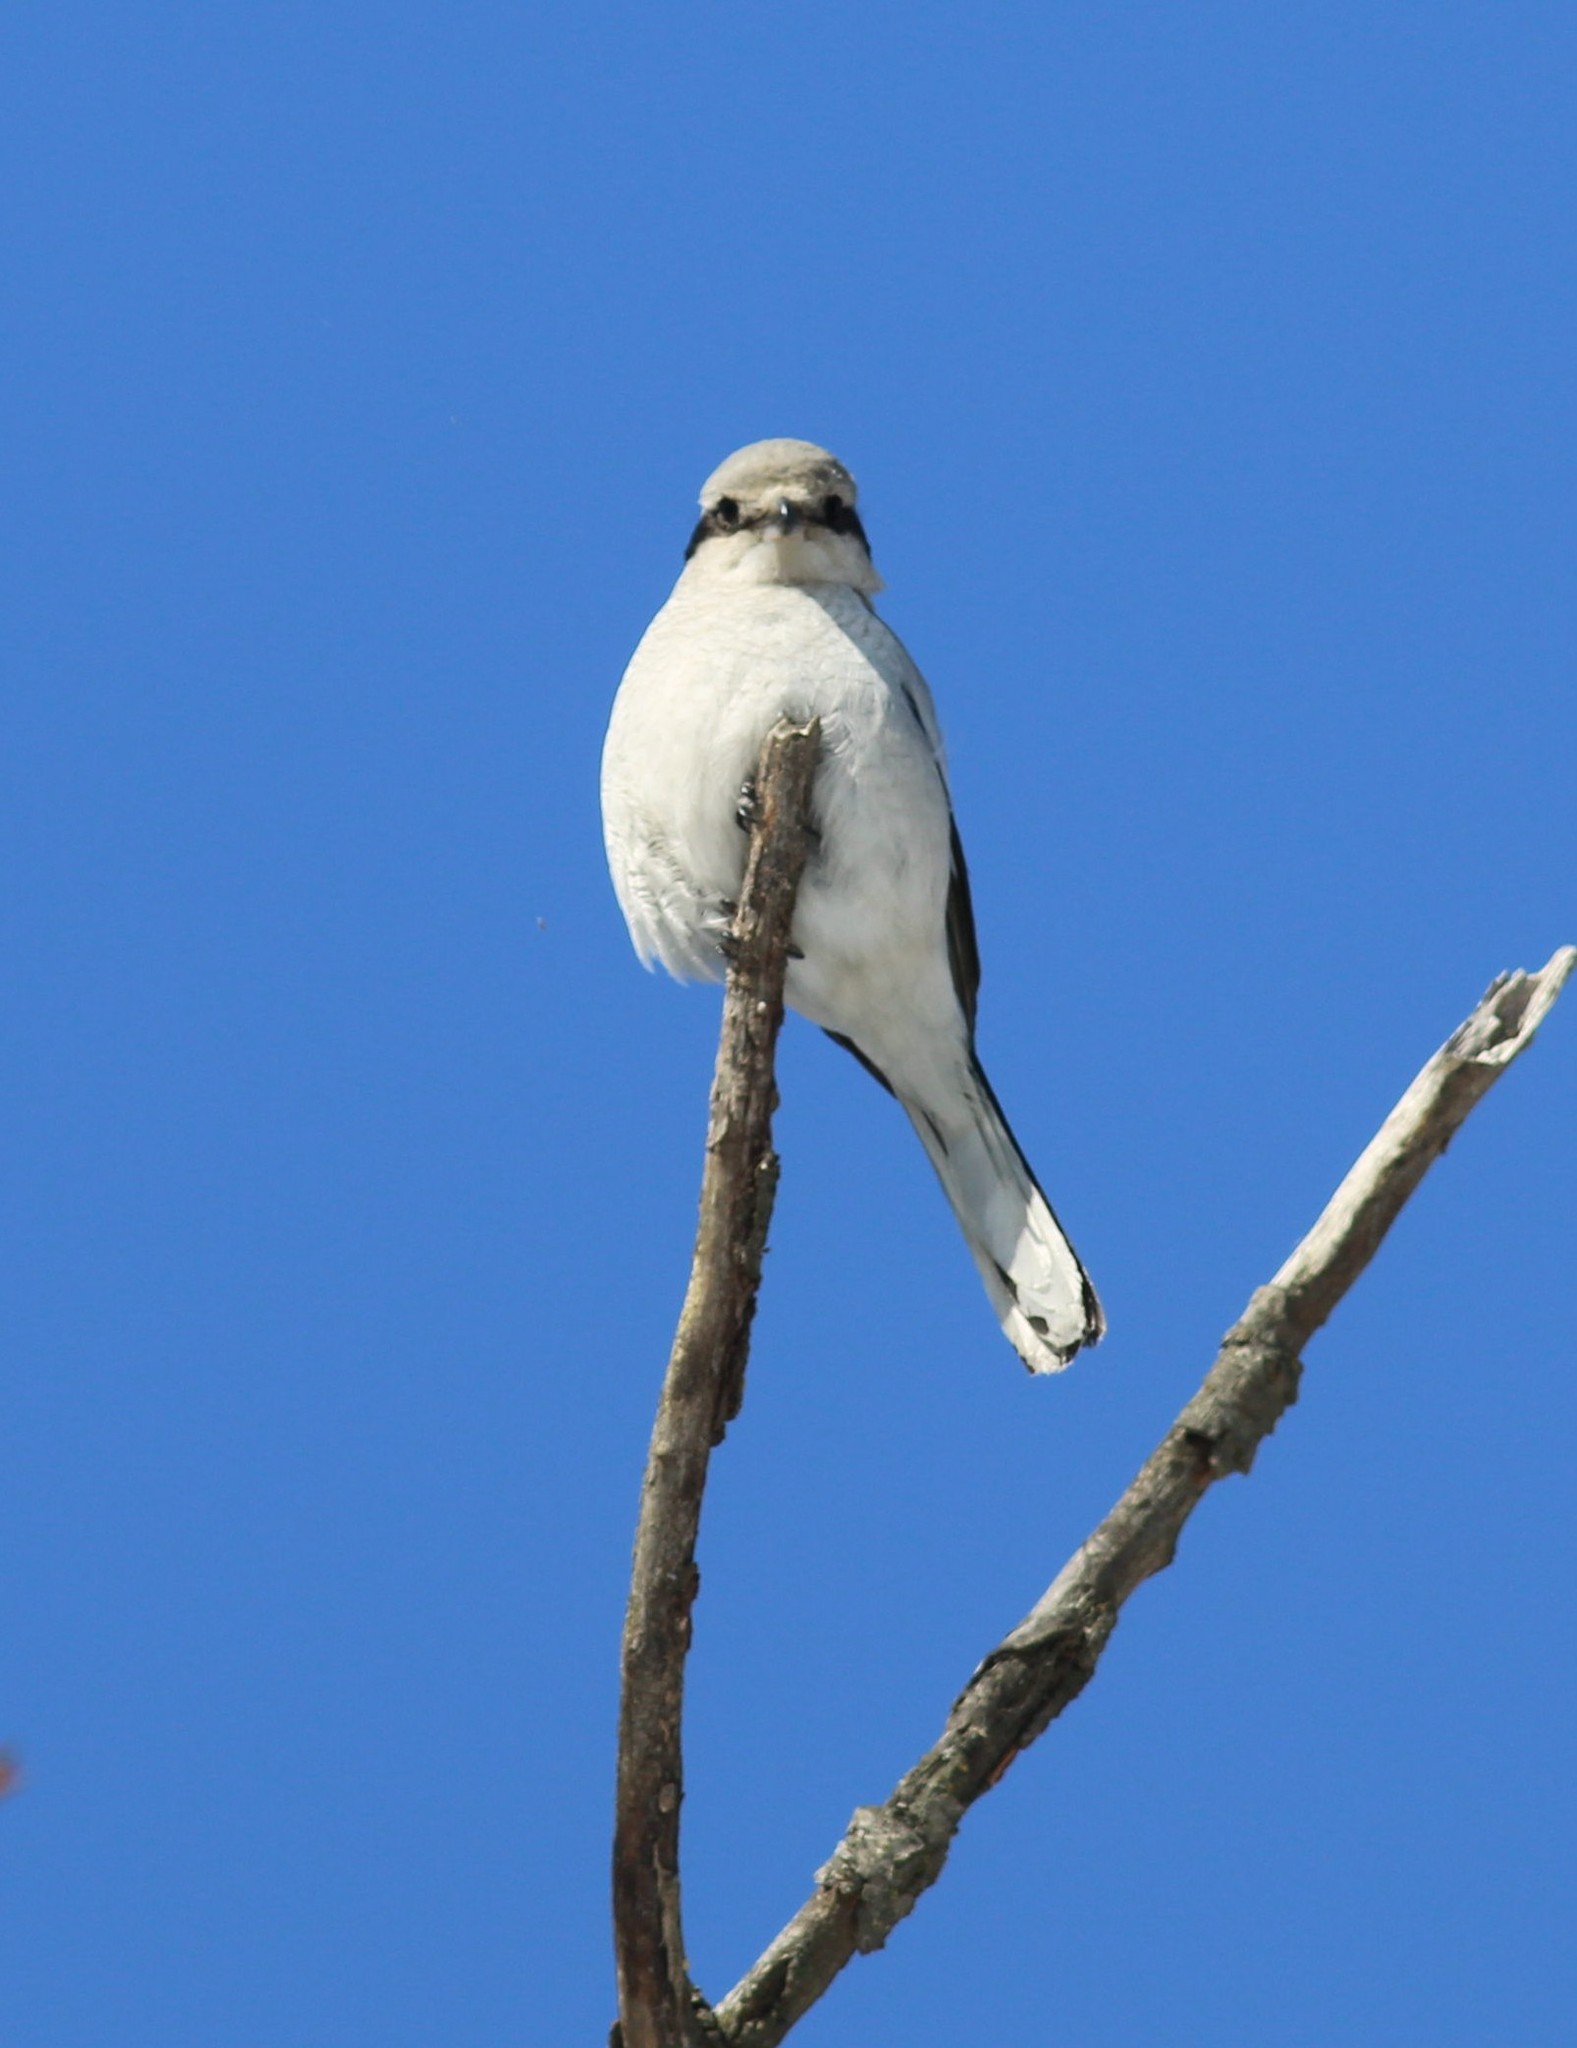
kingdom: Animalia
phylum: Chordata
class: Aves
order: Passeriformes
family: Laniidae
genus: Lanius
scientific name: Lanius excubitor
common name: Great grey shrike
